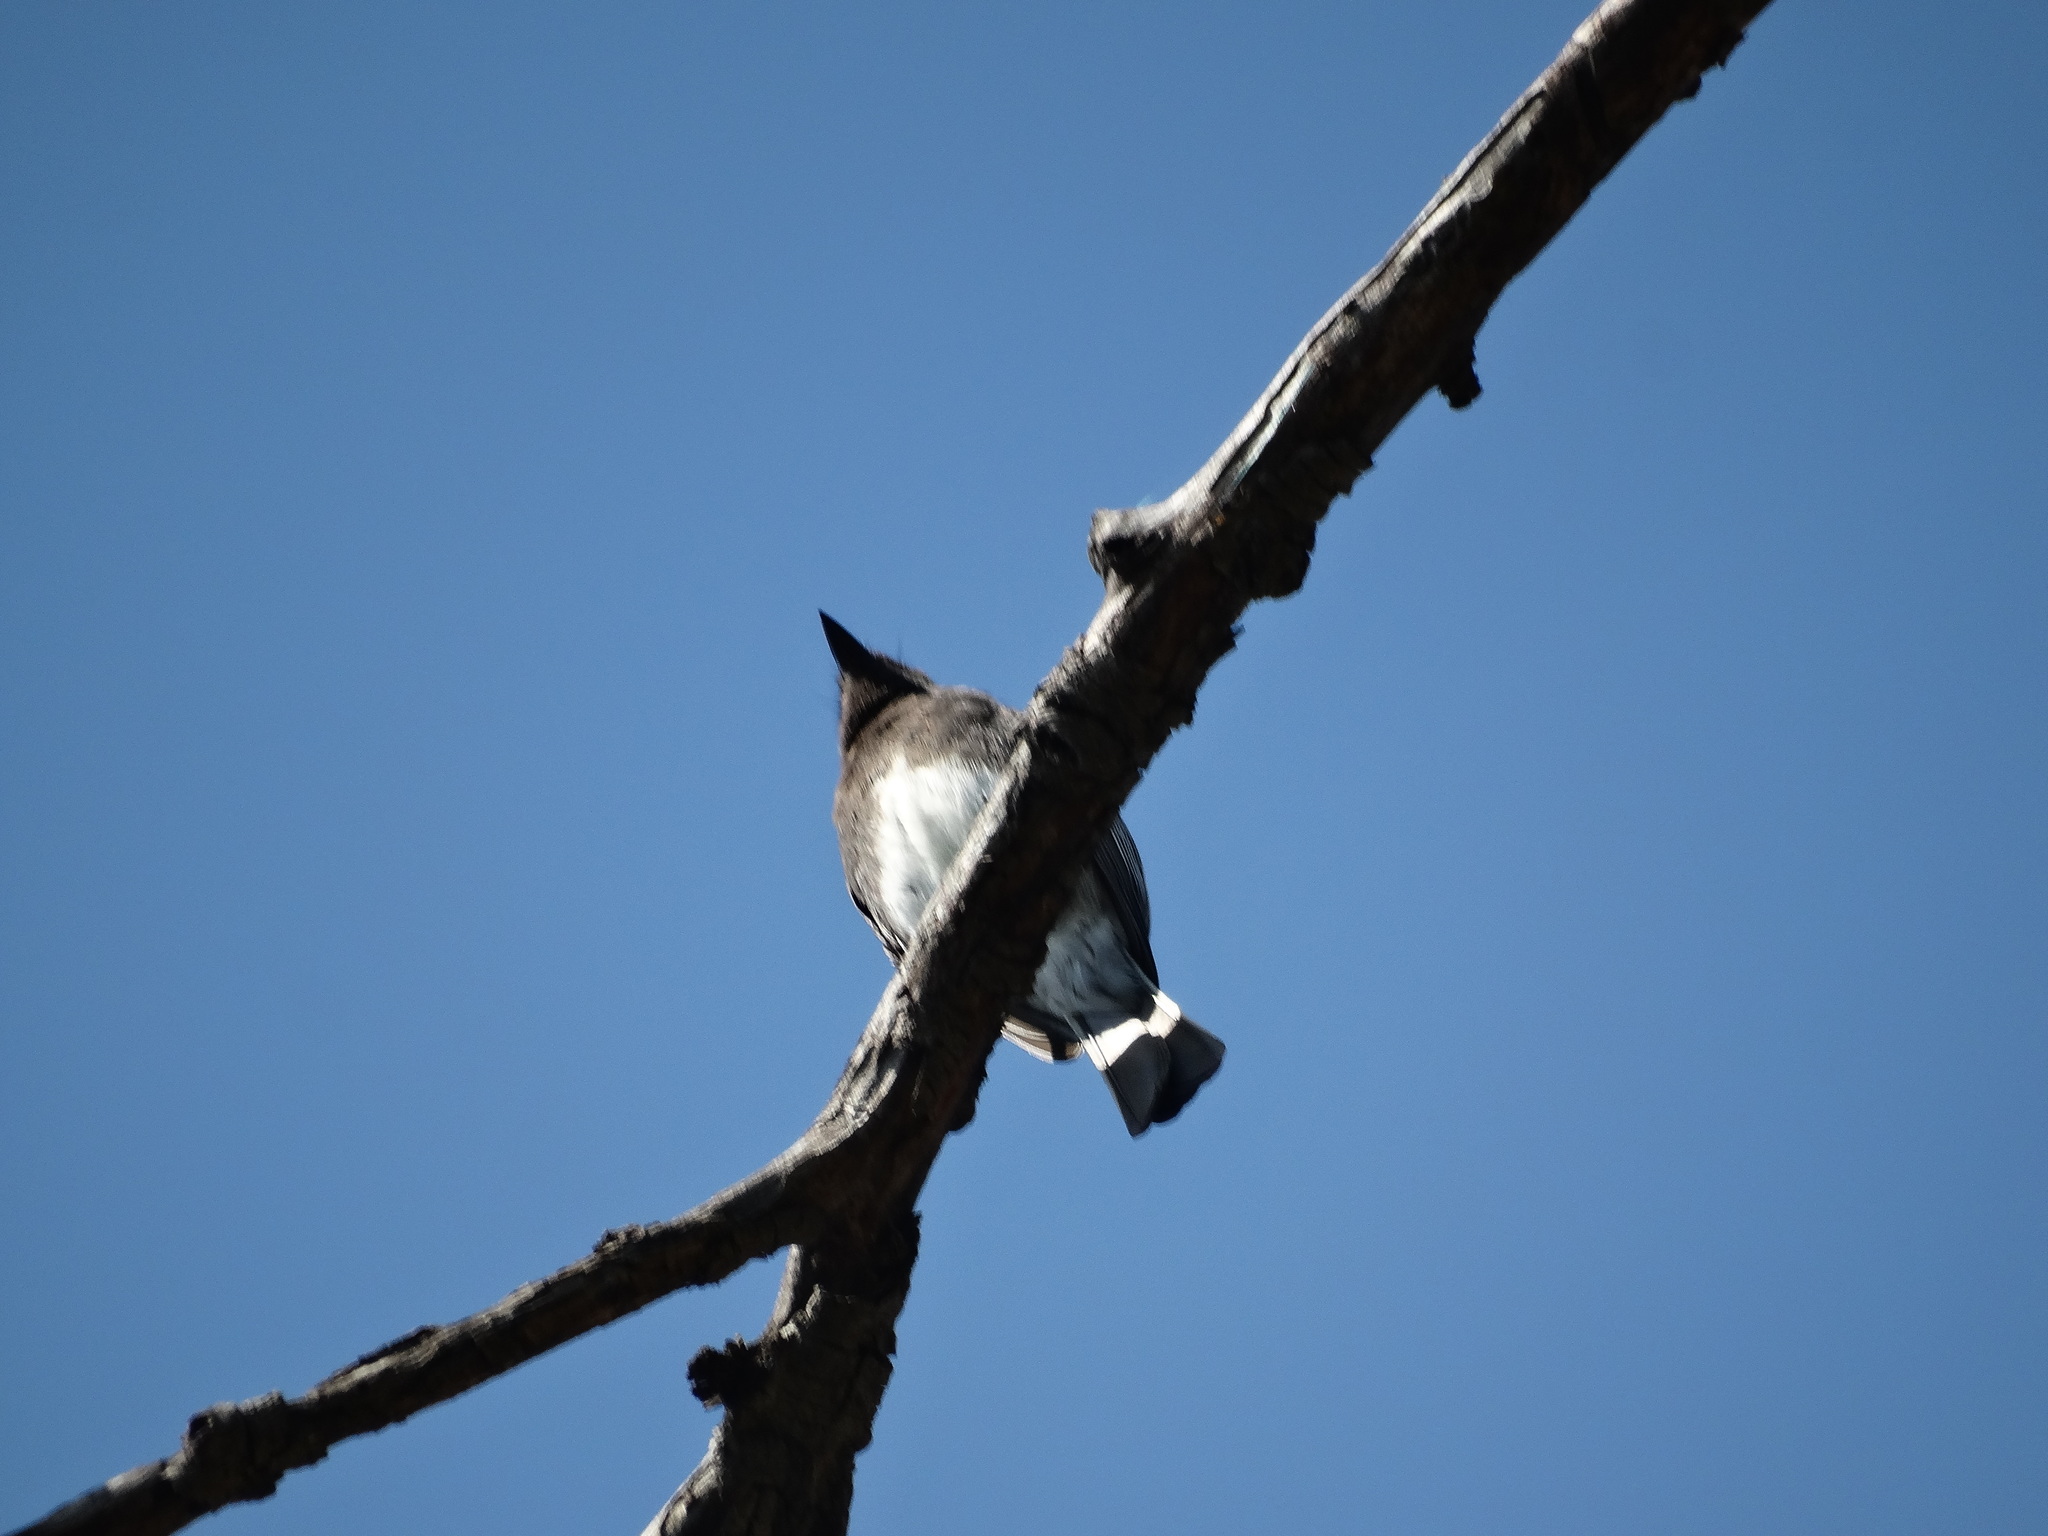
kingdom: Animalia
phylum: Chordata
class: Aves
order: Passeriformes
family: Tyrannidae
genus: Sayornis
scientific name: Sayornis nigricans
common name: Black phoebe
